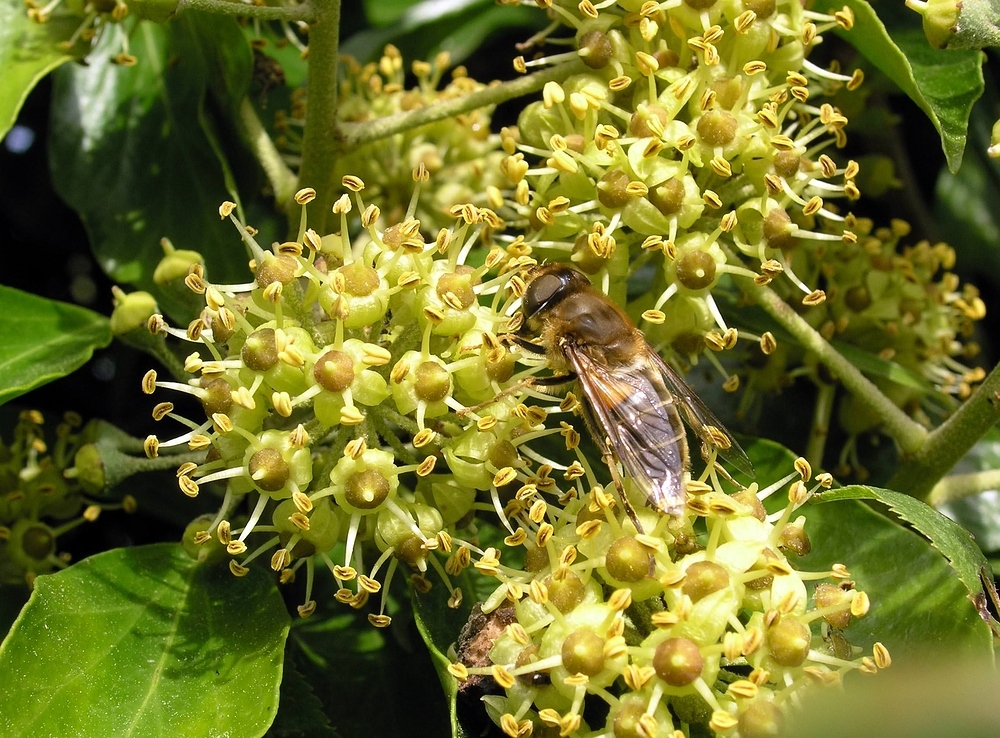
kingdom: Animalia
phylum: Arthropoda
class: Insecta
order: Diptera
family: Syrphidae
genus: Eristalis
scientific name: Eristalis pertinax
